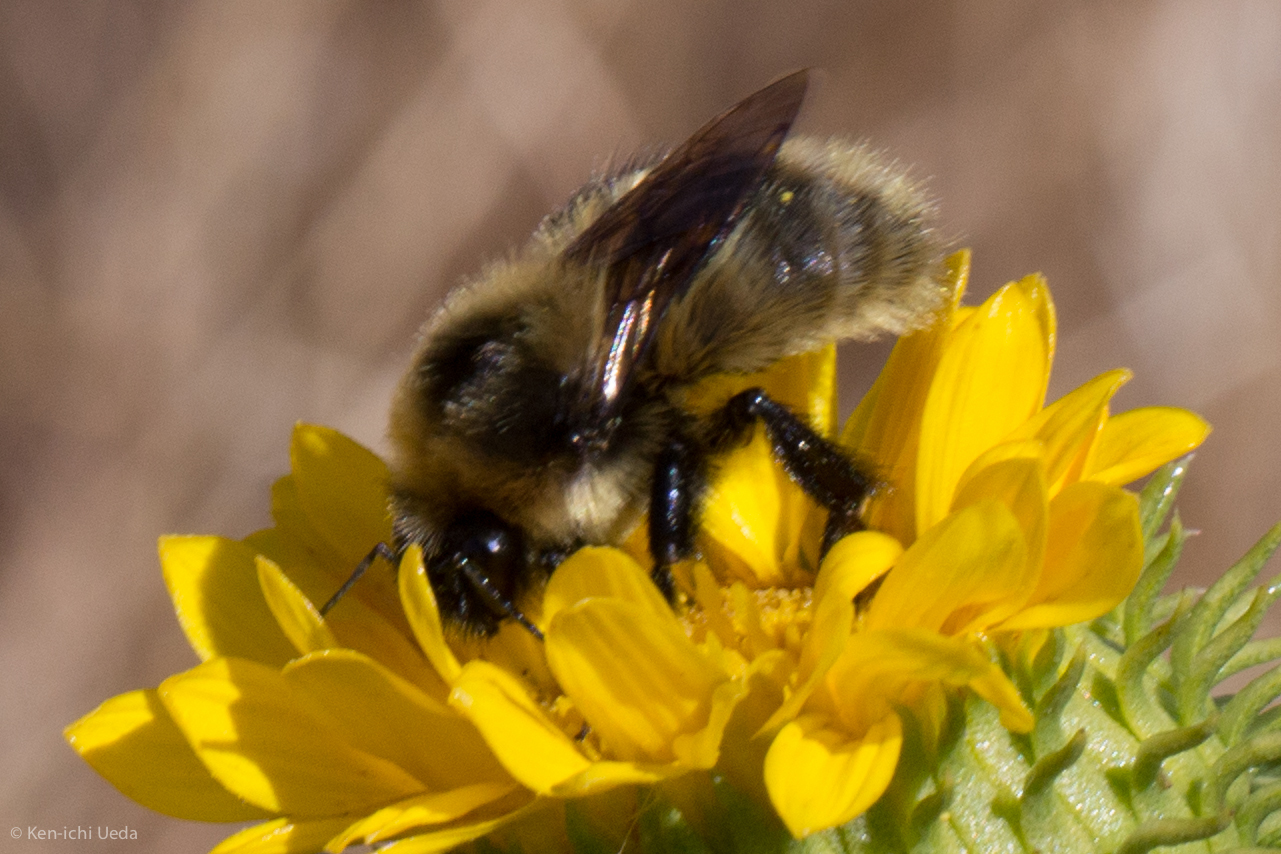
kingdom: Animalia
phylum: Arthropoda
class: Insecta
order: Hymenoptera
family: Apidae
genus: Bombus
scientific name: Bombus rufocinctus
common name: Red-belted bumble bee
